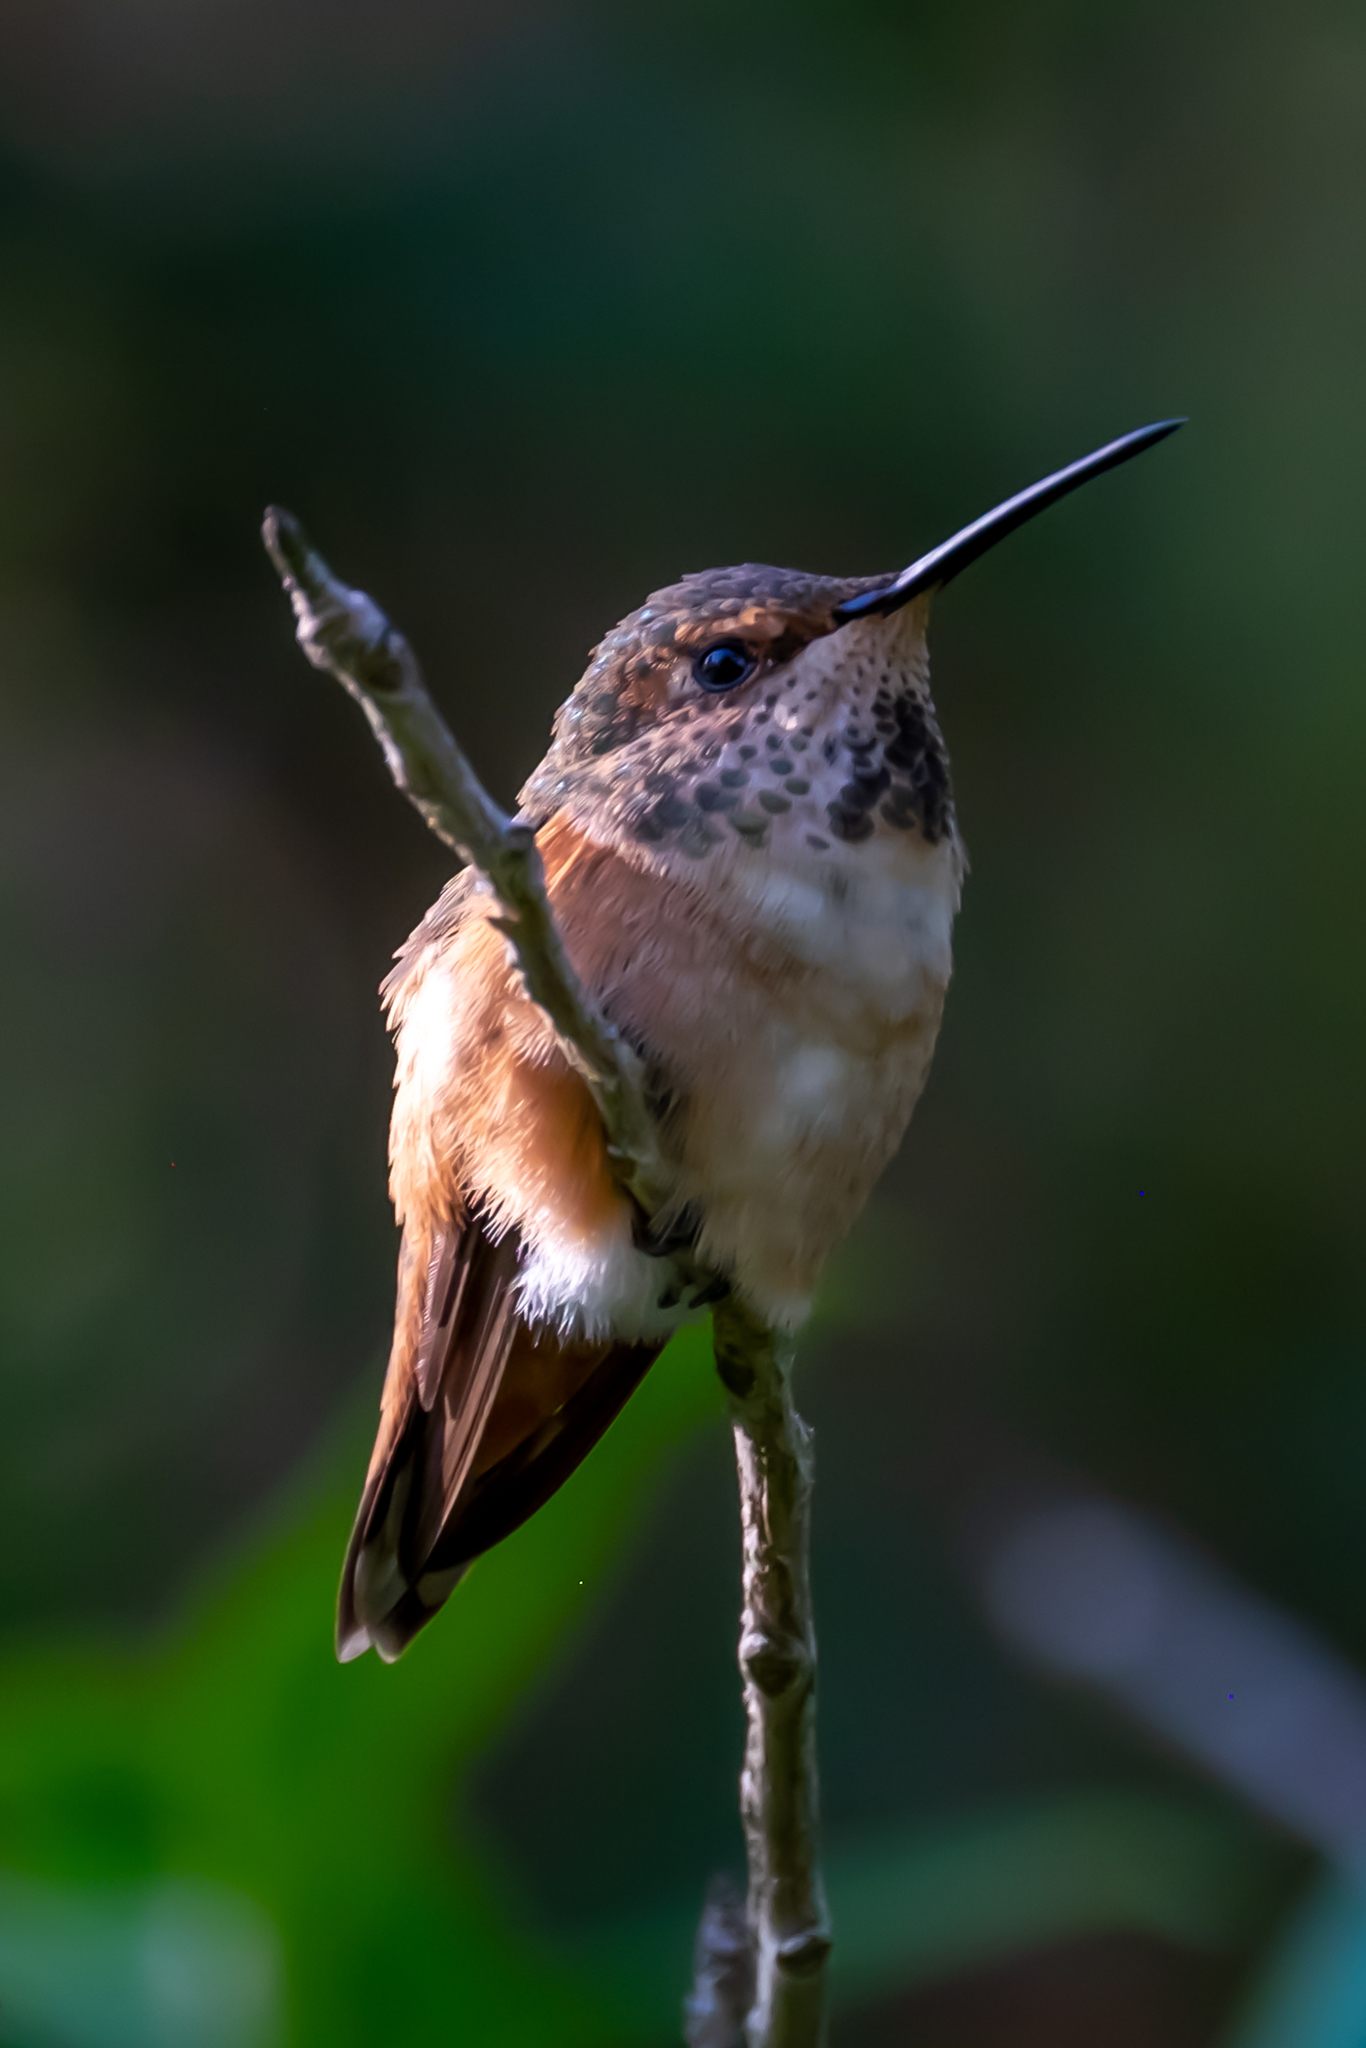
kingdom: Animalia
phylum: Chordata
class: Aves
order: Apodiformes
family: Trochilidae
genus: Selasphorus
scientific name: Selasphorus sasin
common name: Allen's hummingbird
